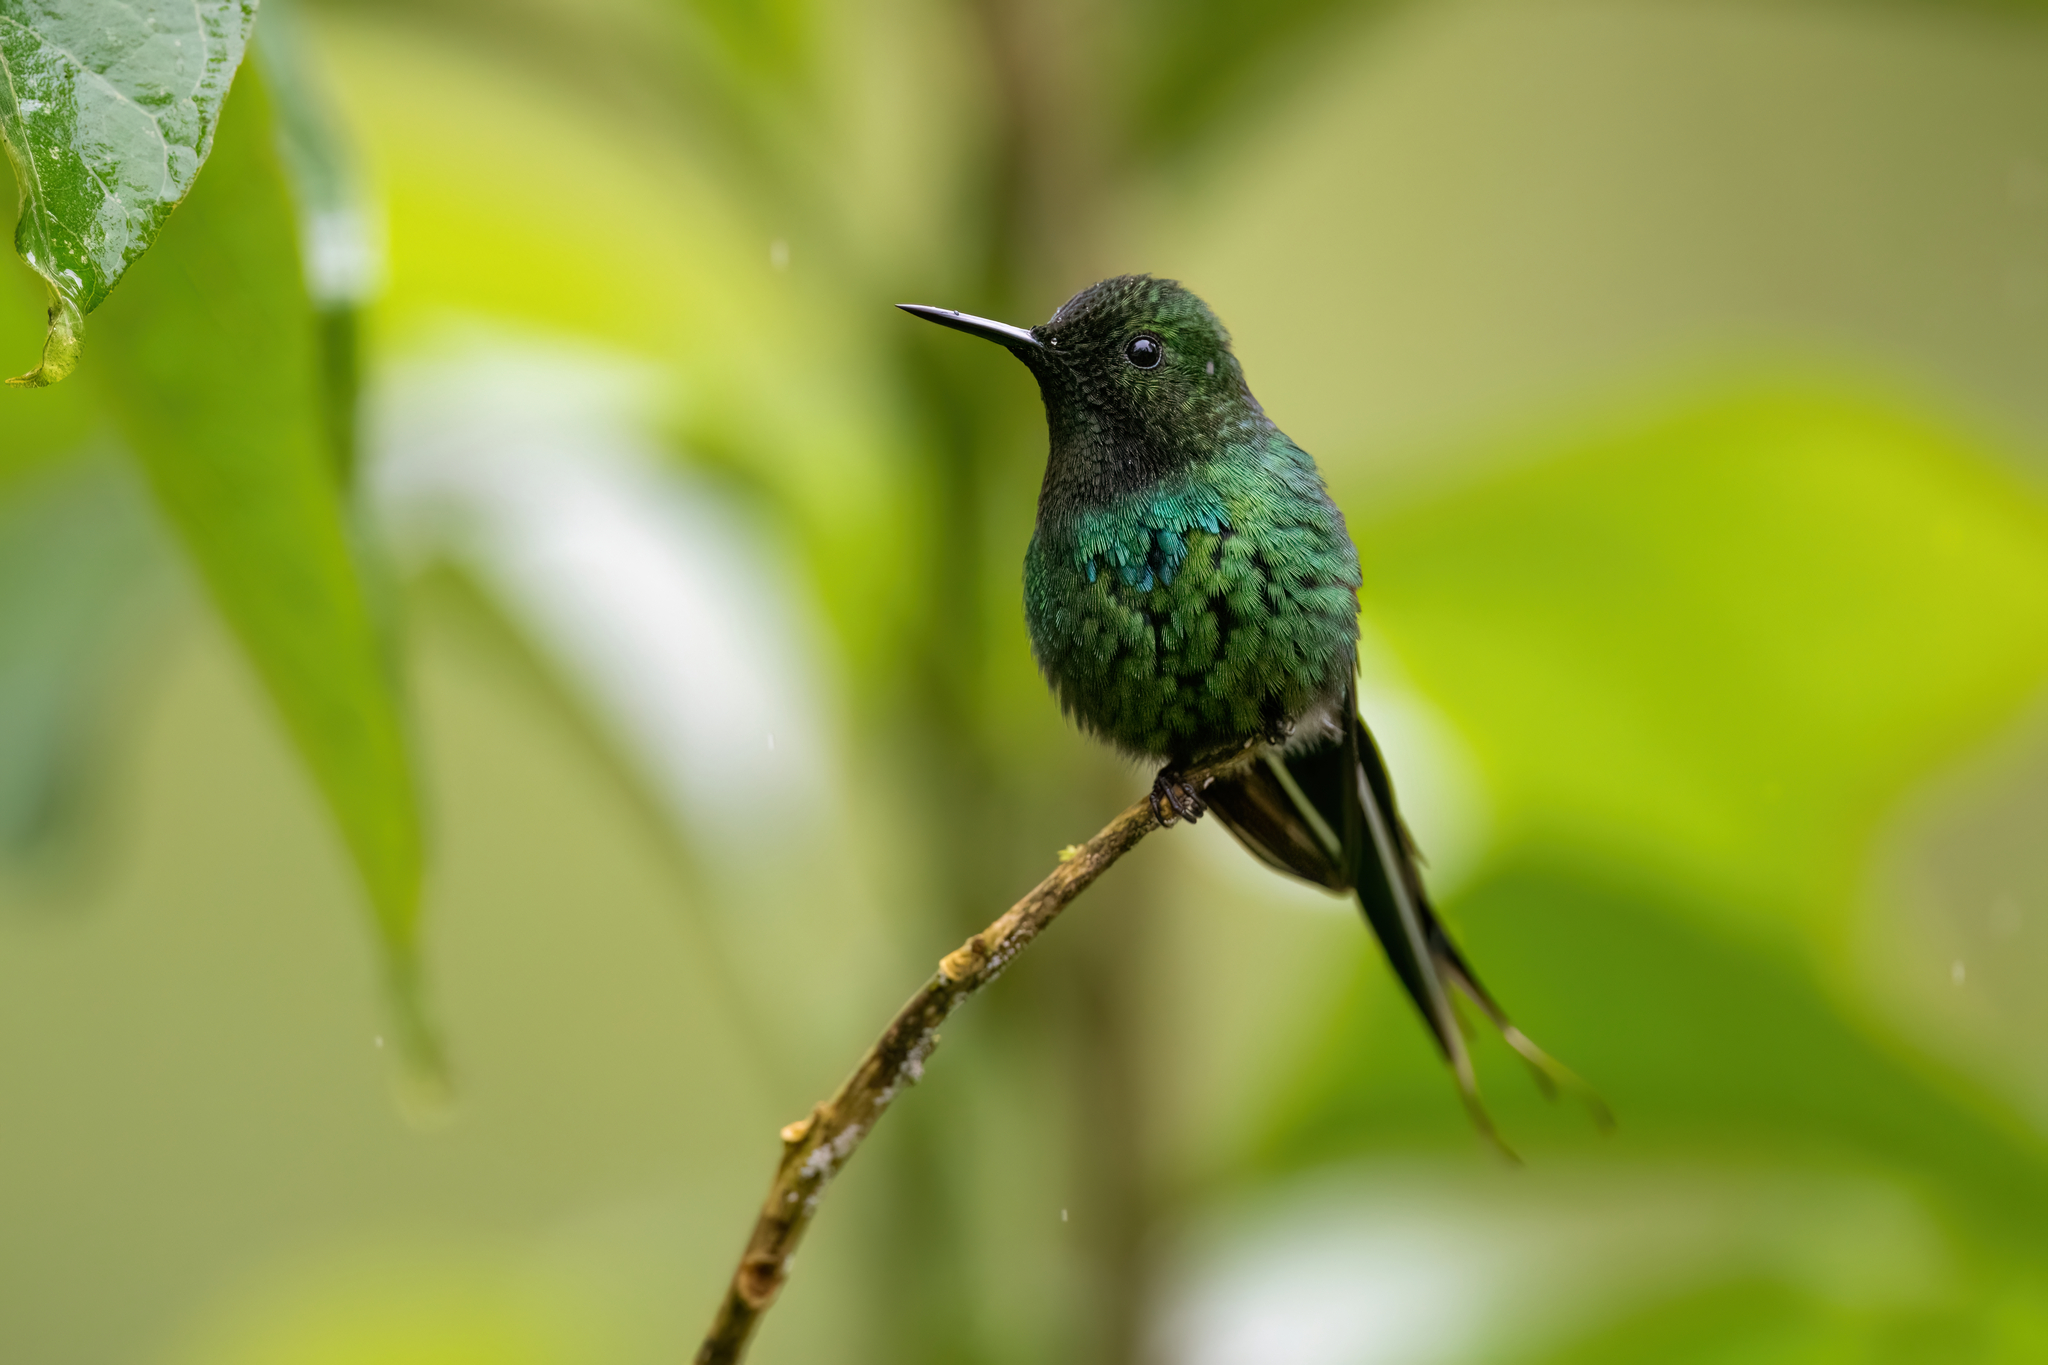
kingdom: Animalia
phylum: Chordata
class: Aves
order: Apodiformes
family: Trochilidae
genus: Discosura
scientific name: Discosura conversii
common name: Green thorntail
